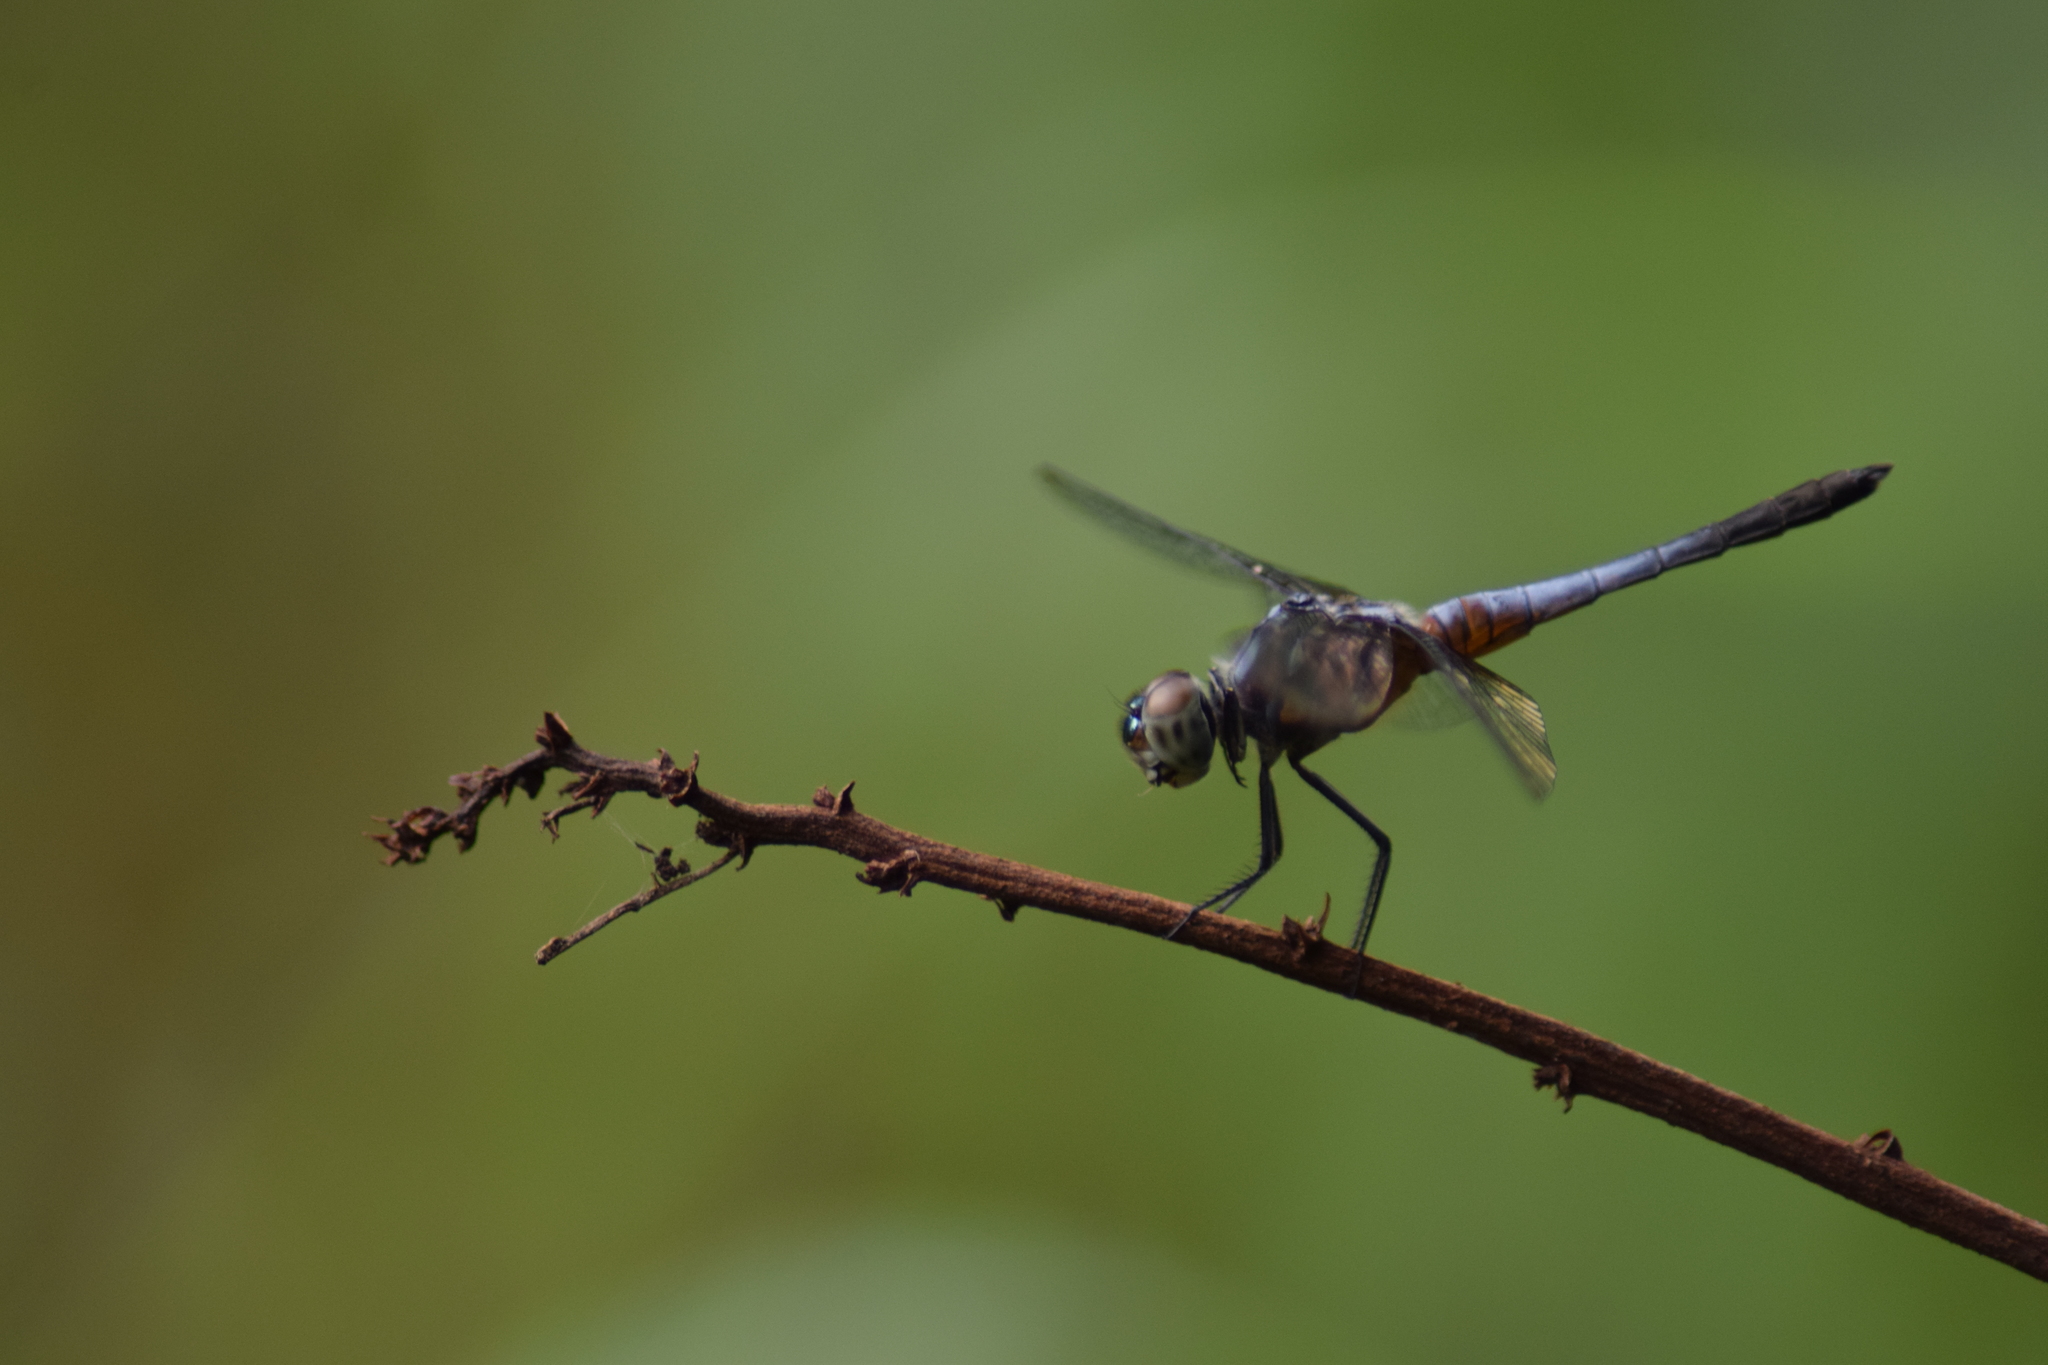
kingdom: Animalia
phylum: Arthropoda
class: Insecta
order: Odonata
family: Libellulidae
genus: Brachydiplax
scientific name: Brachydiplax chalybea
